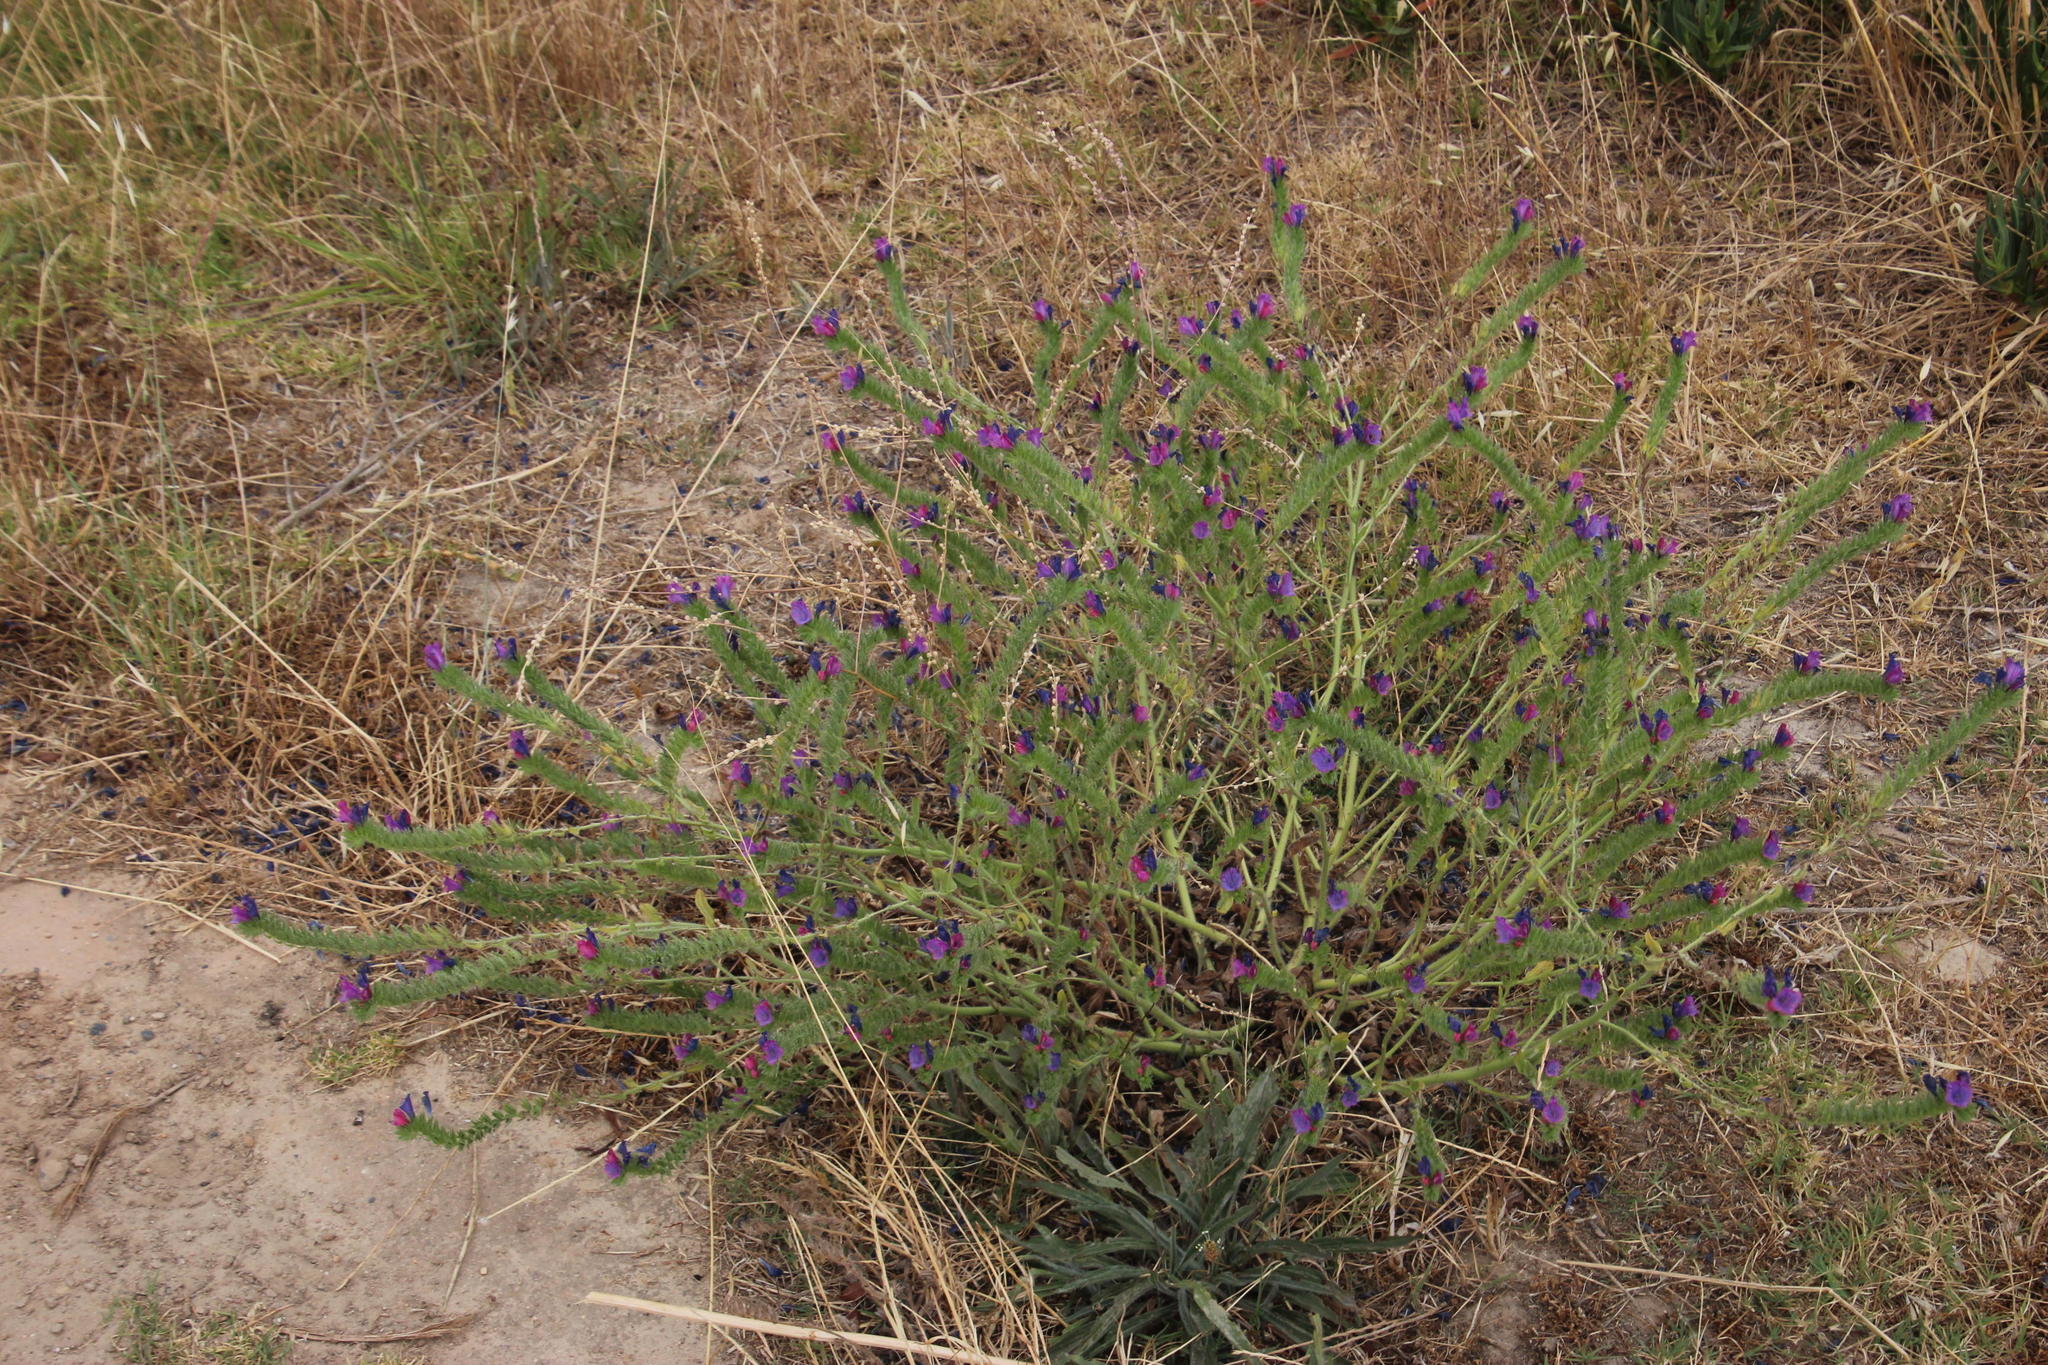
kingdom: Plantae
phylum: Tracheophyta
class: Magnoliopsida
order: Boraginales
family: Boraginaceae
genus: Echium
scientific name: Echium plantagineum
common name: Purple viper's-bugloss
